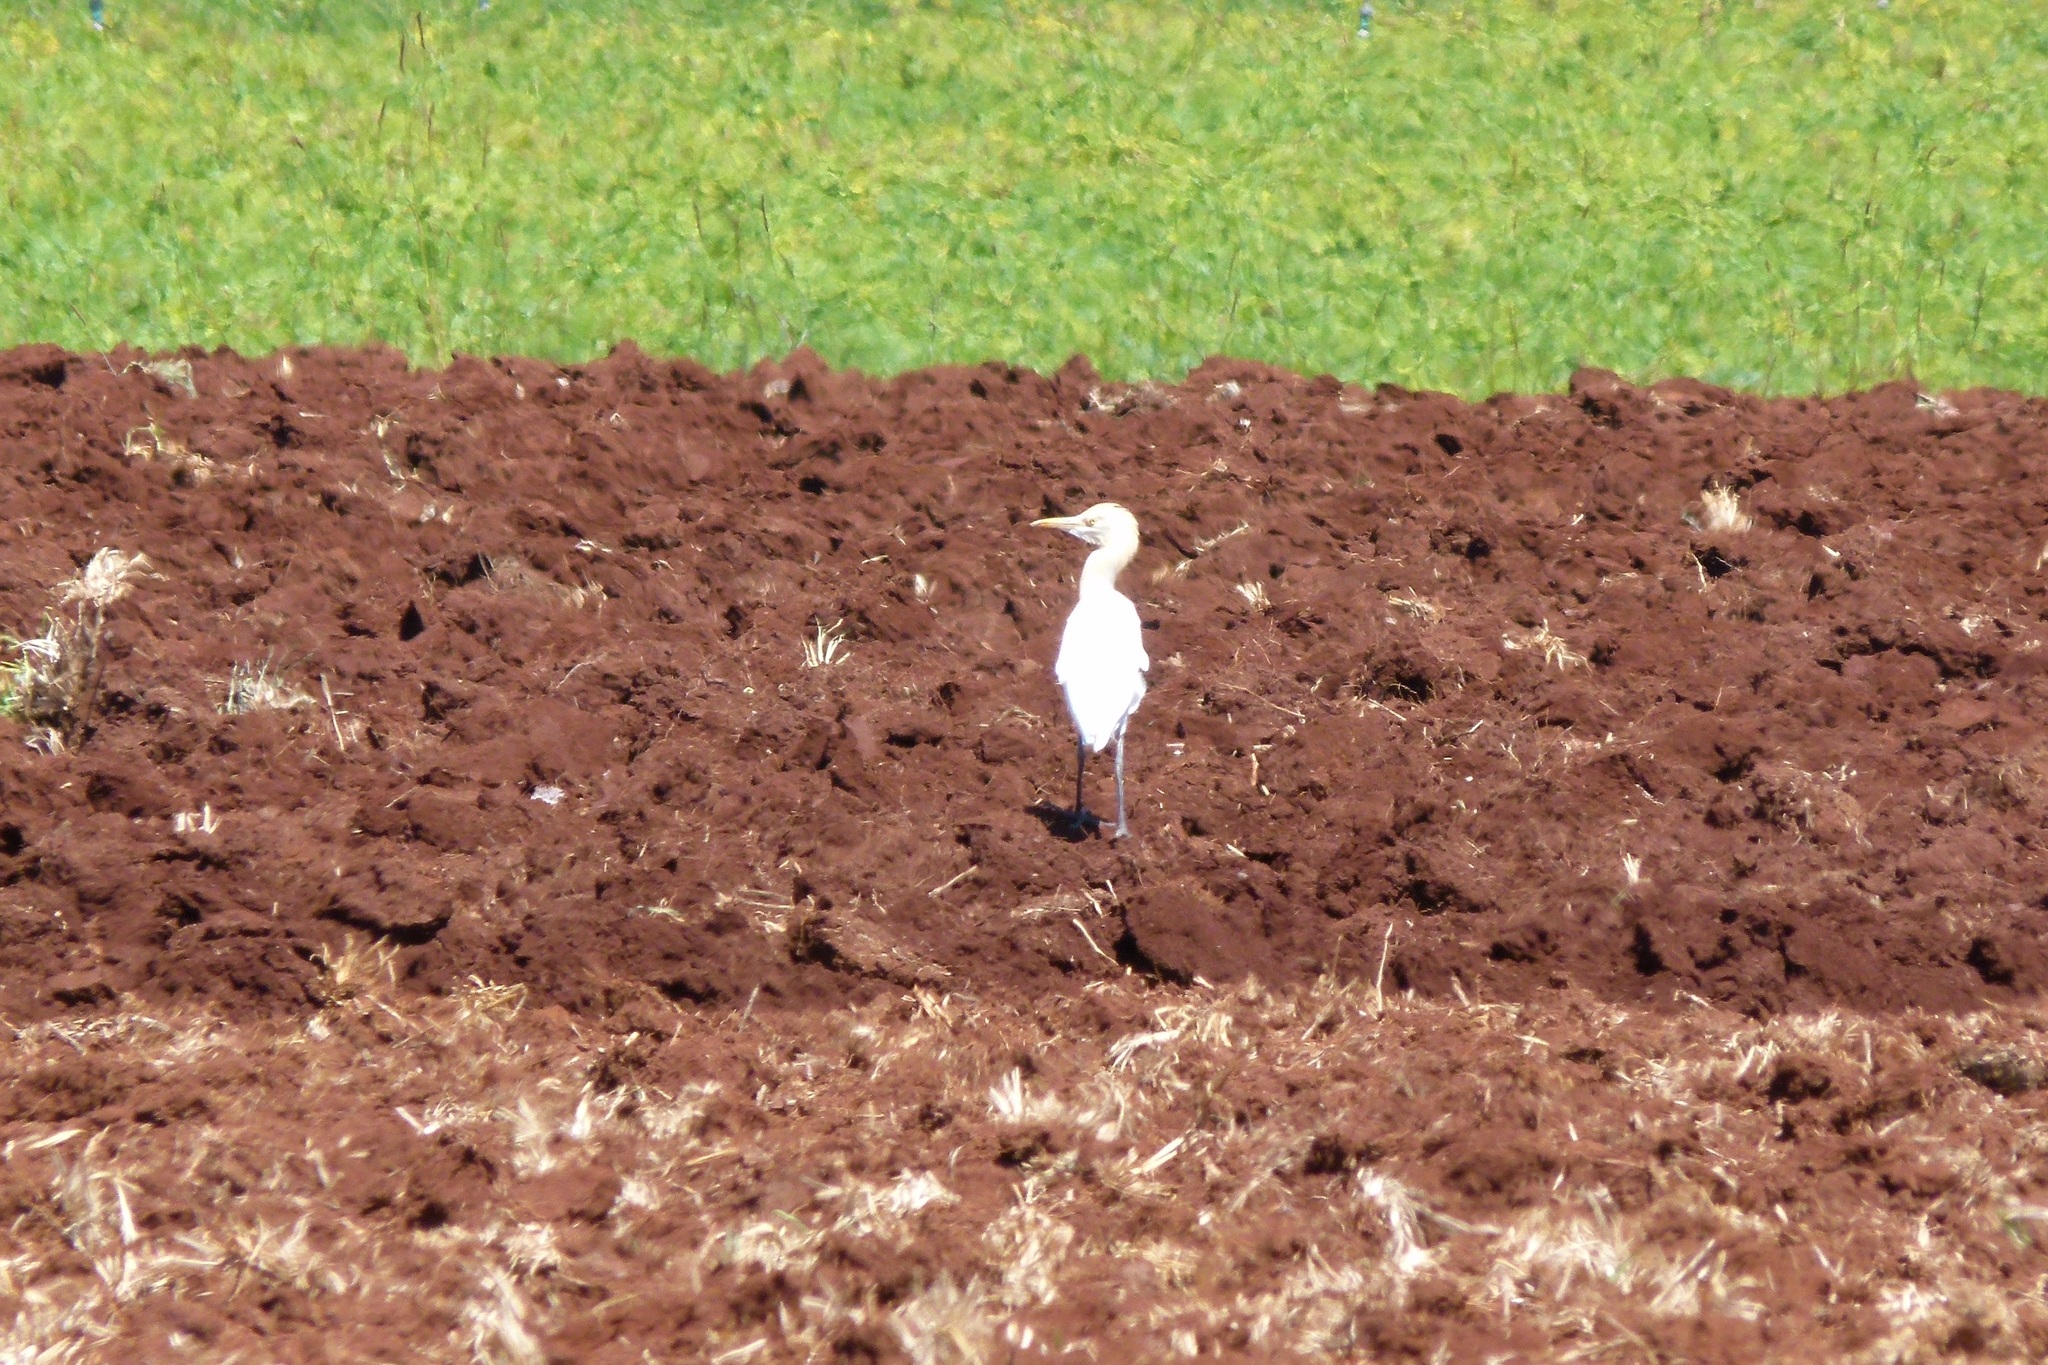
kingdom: Animalia
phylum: Chordata
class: Aves
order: Pelecaniformes
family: Ardeidae
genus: Bubulcus
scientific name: Bubulcus coromandus
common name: Eastern cattle egret
